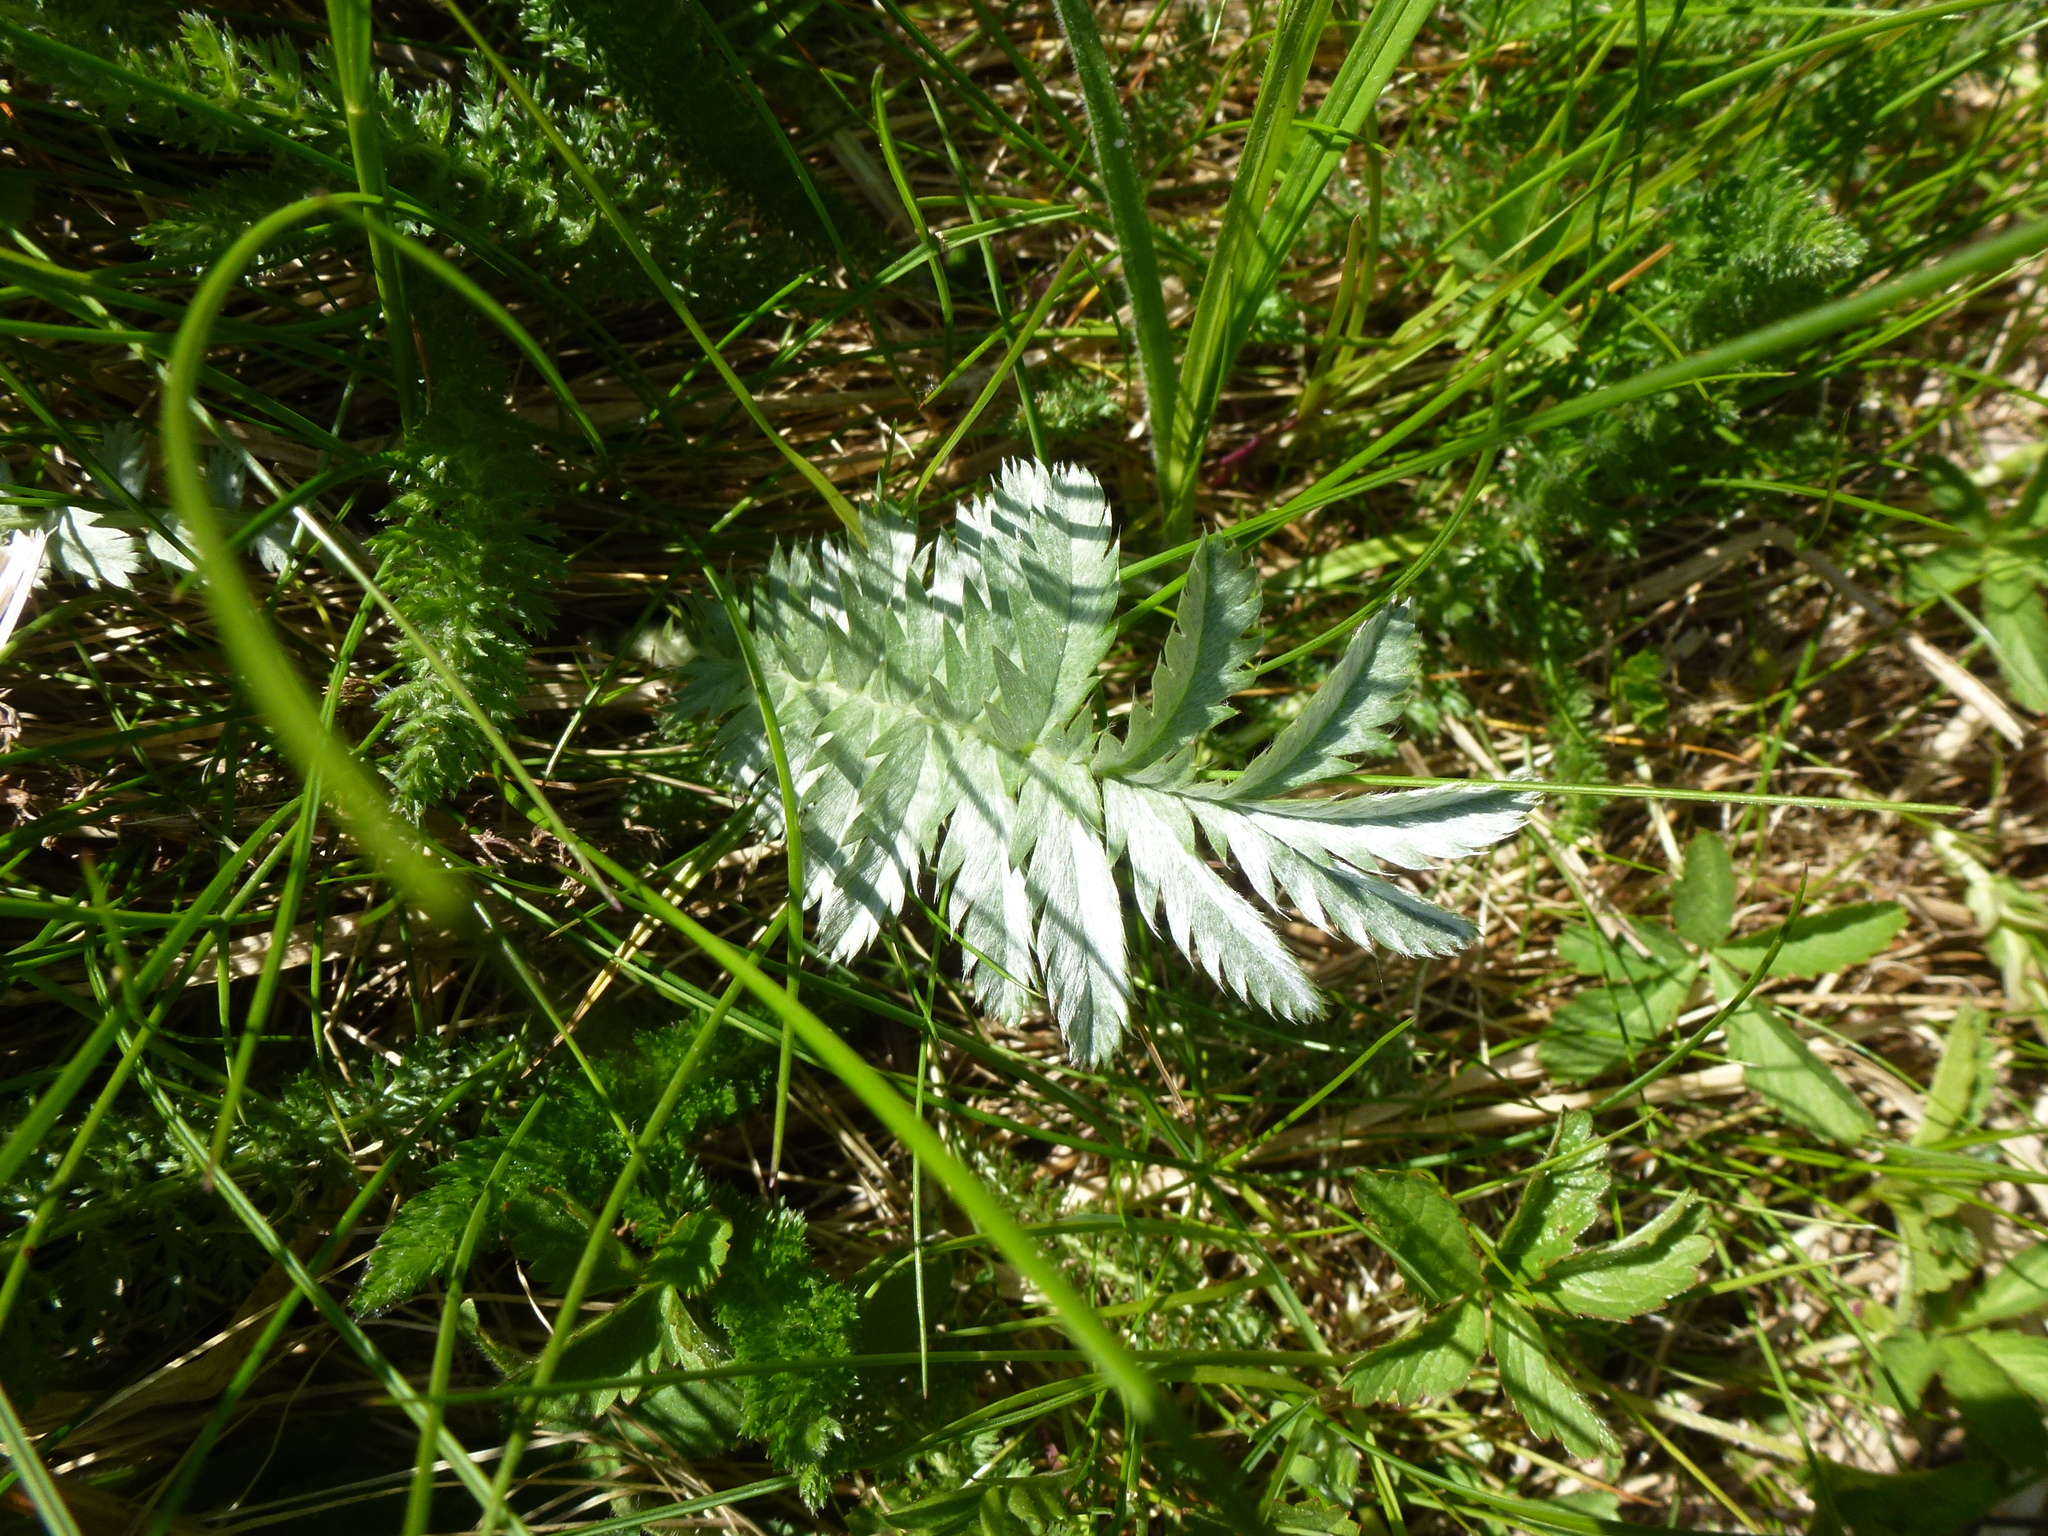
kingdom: Plantae
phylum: Tracheophyta
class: Magnoliopsida
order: Rosales
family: Rosaceae
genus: Argentina
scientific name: Argentina anserina
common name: Common silverweed
